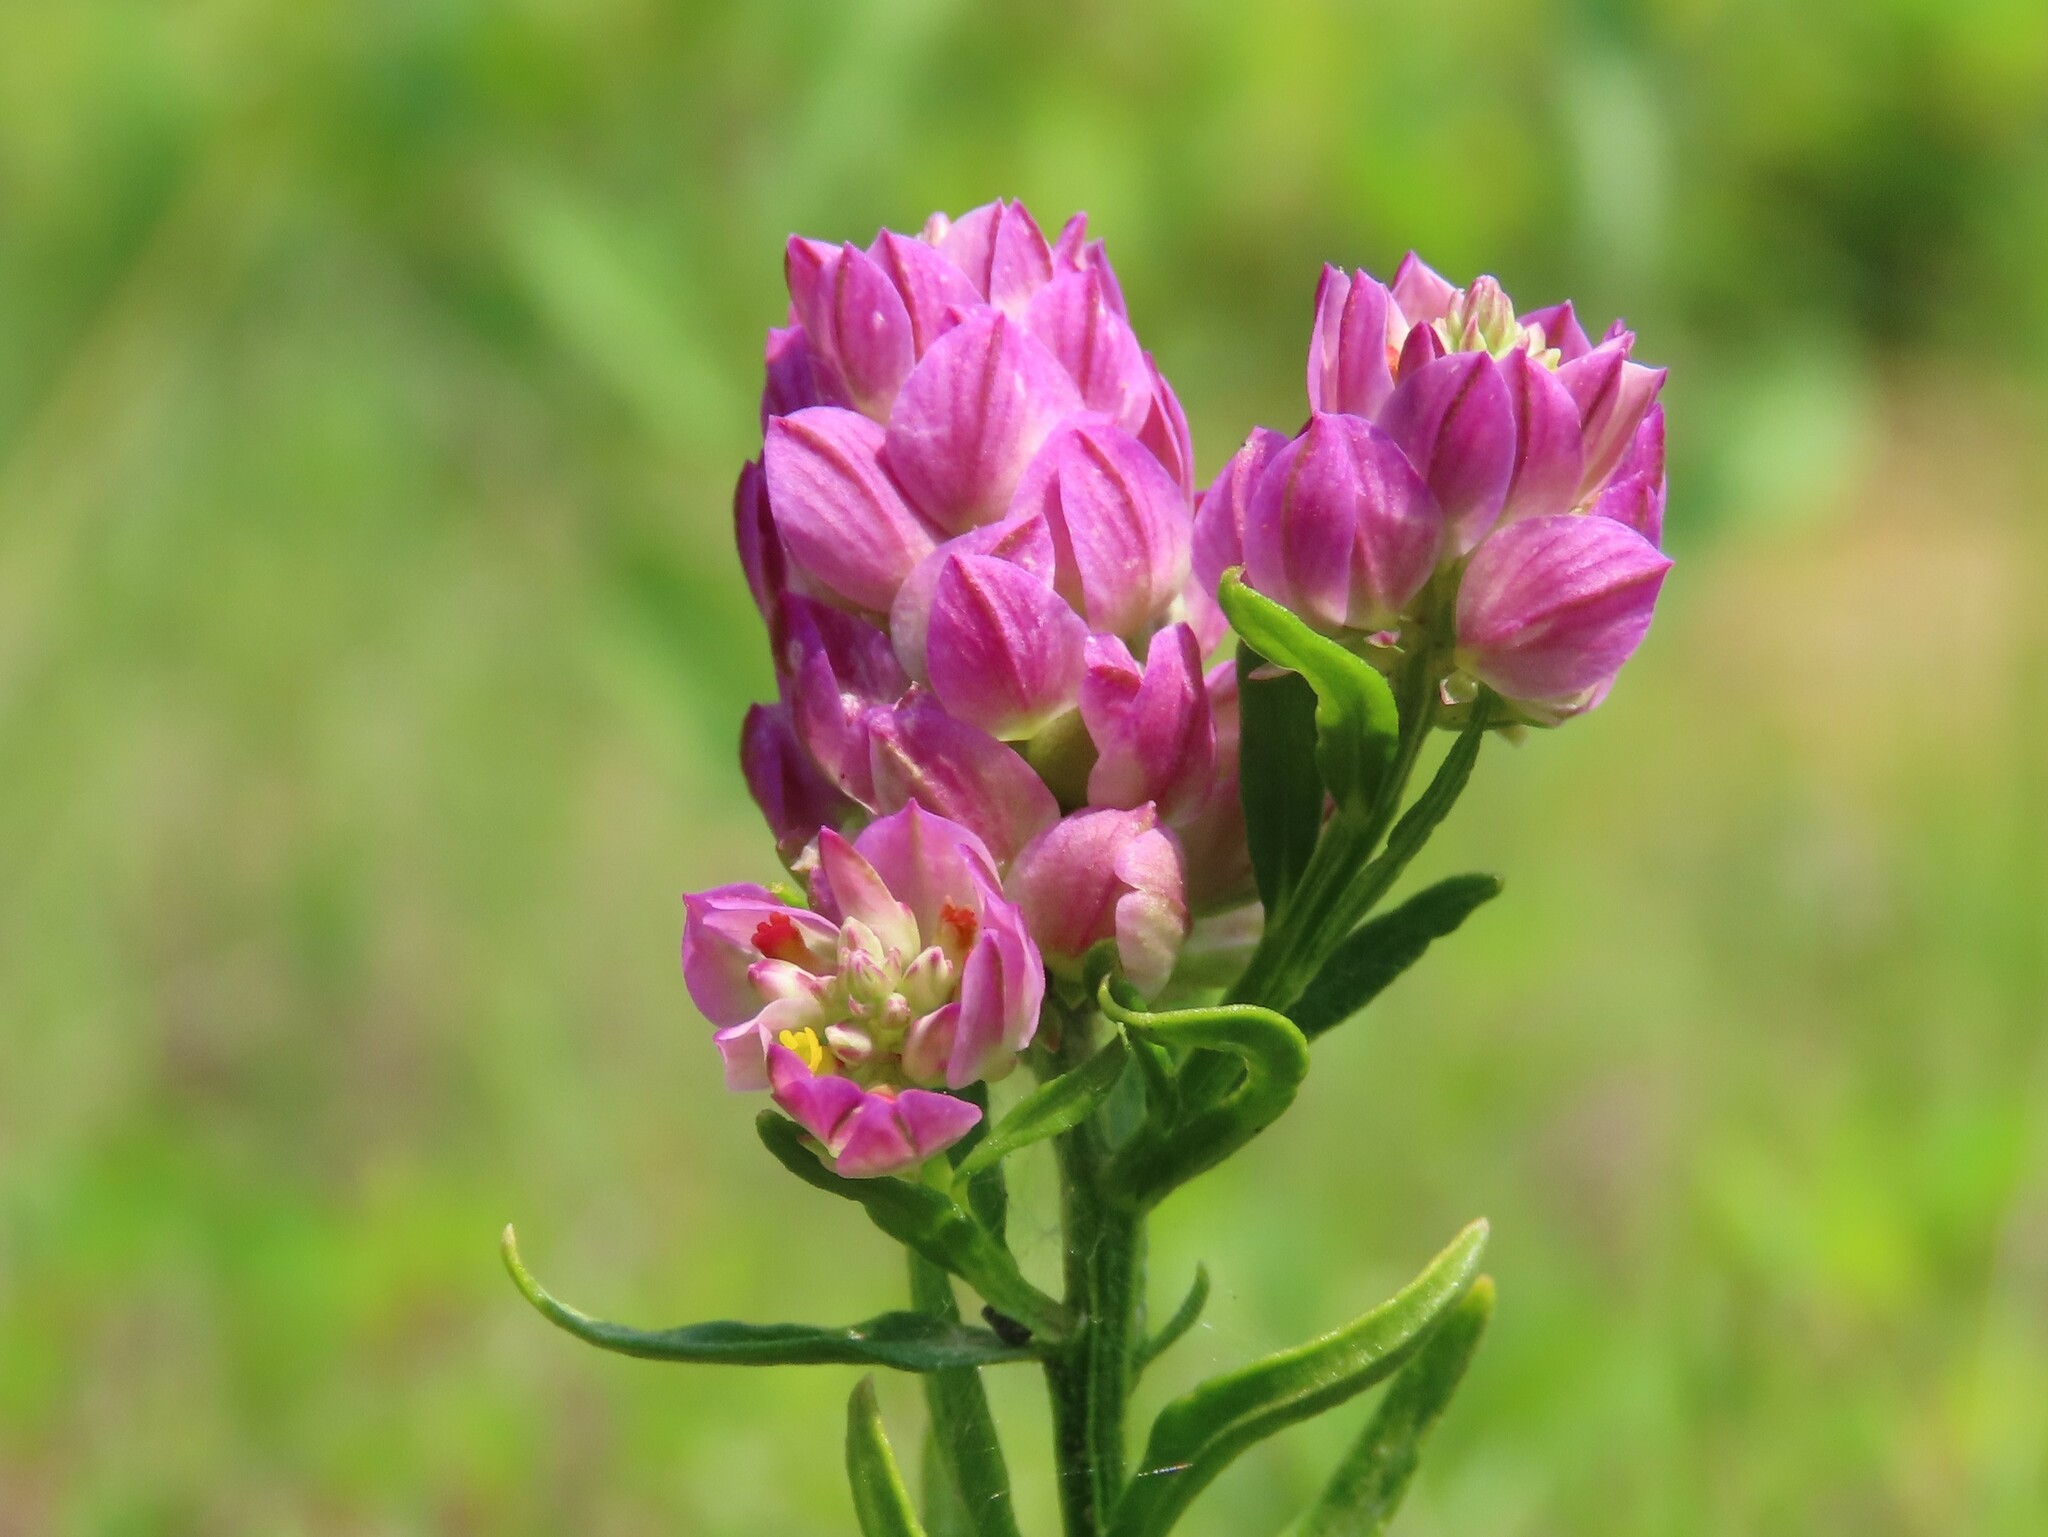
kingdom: Plantae
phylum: Tracheophyta
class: Magnoliopsida
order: Fabales
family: Polygalaceae
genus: Polygala
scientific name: Polygala sanguinea
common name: Blood milkwort
